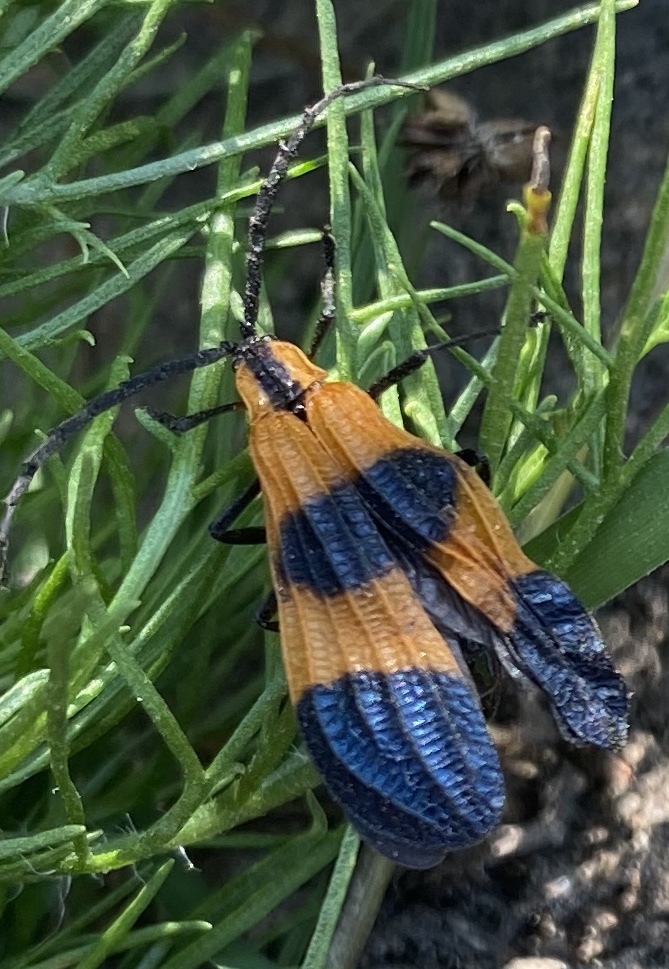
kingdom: Animalia
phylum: Arthropoda
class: Insecta
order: Coleoptera
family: Lycidae
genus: Calopteron
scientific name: Calopteron terminale
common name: End band net-winged beetle
